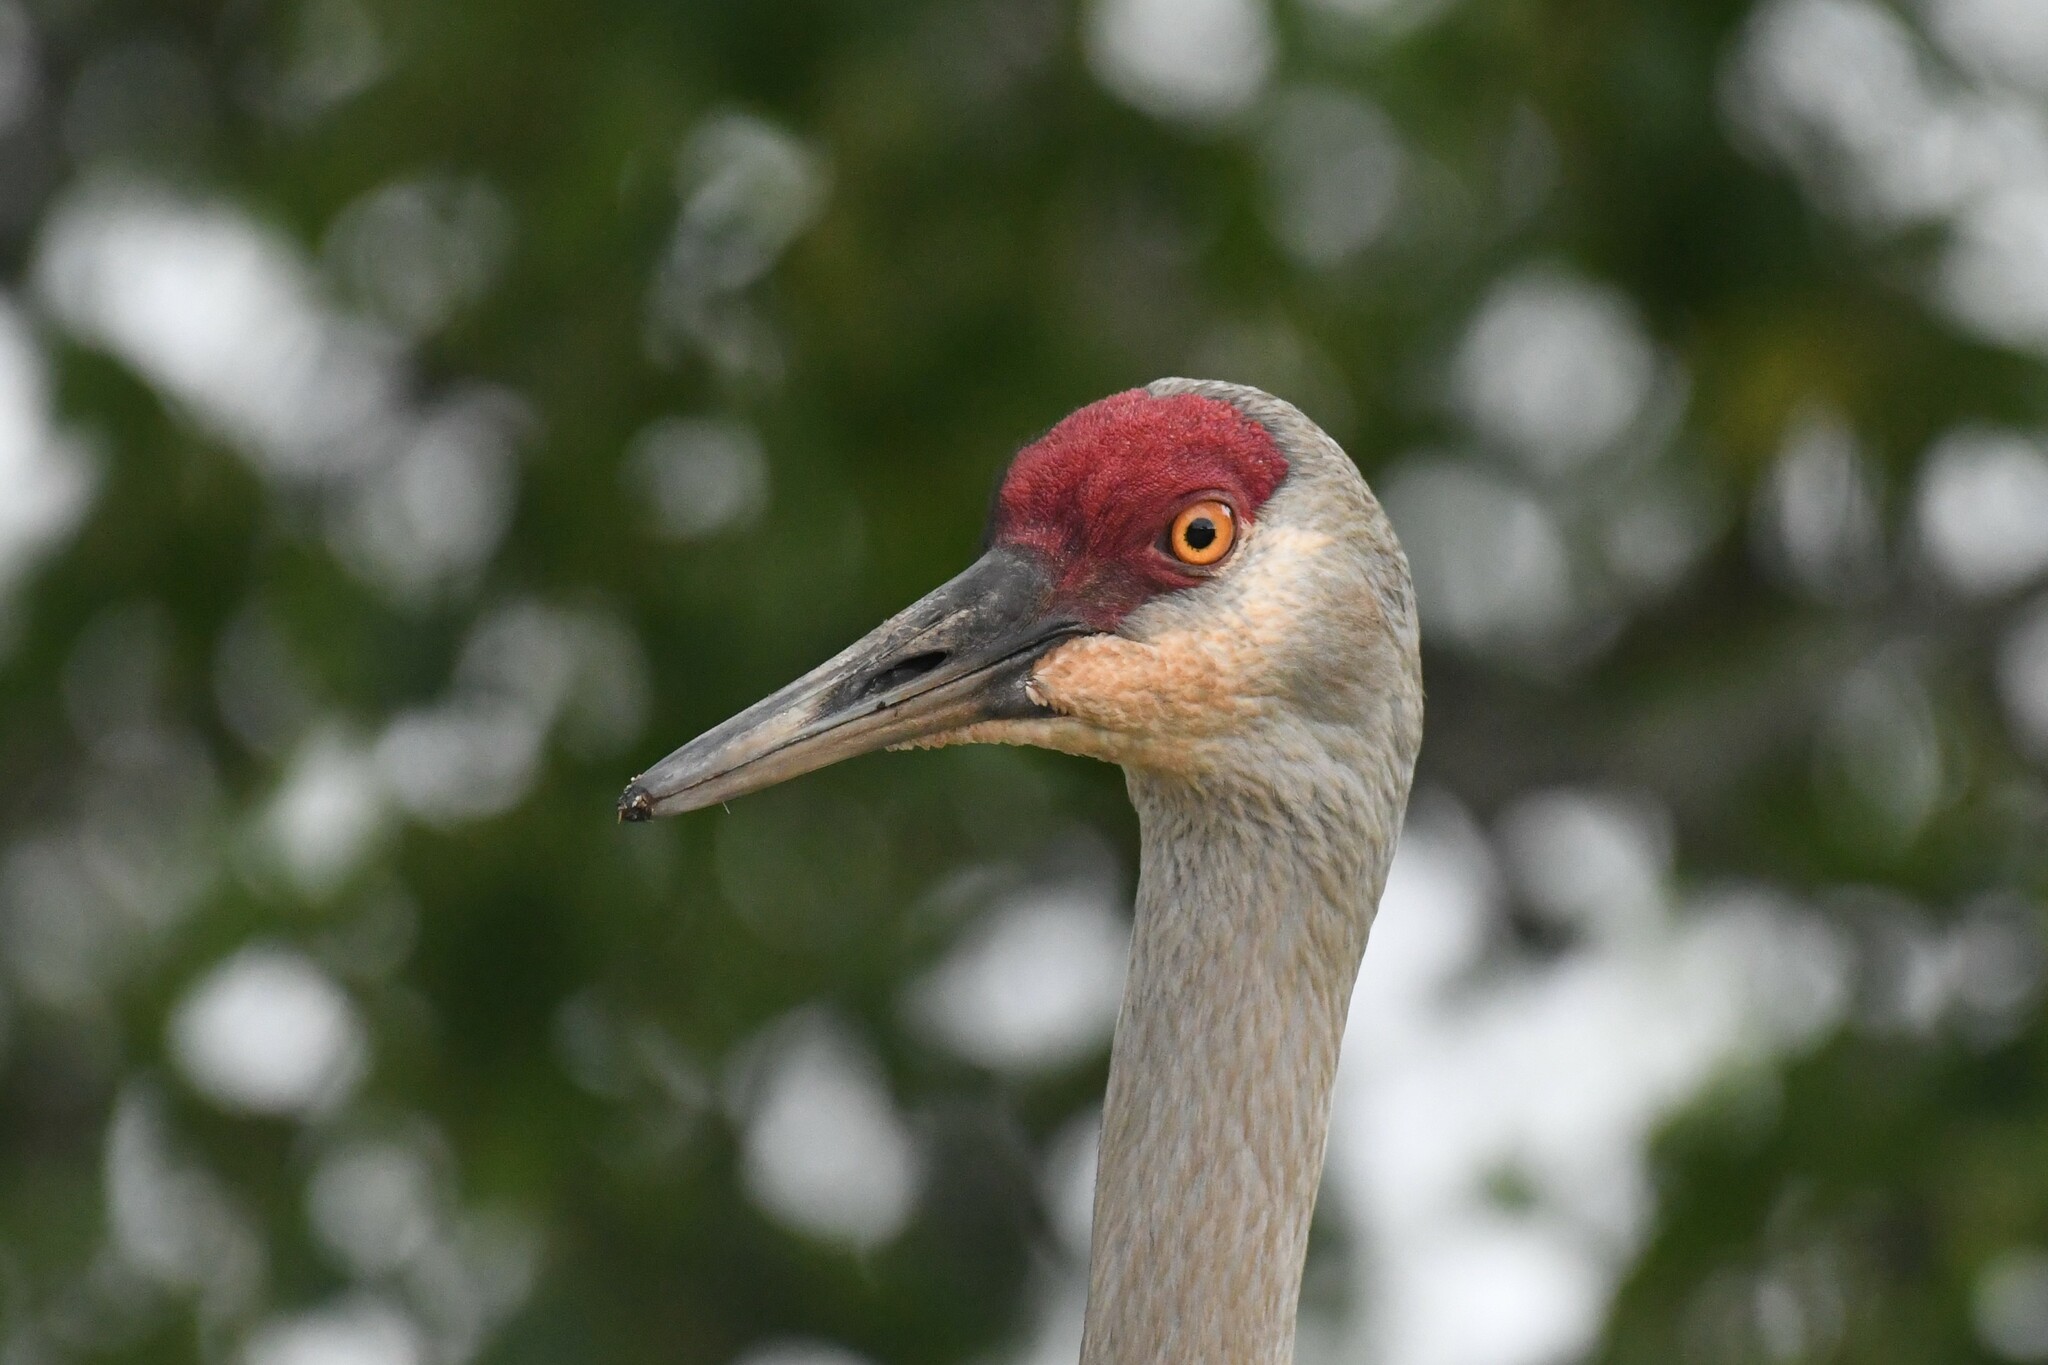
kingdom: Animalia
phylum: Chordata
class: Aves
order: Gruiformes
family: Gruidae
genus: Grus
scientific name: Grus canadensis
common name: Sandhill crane
